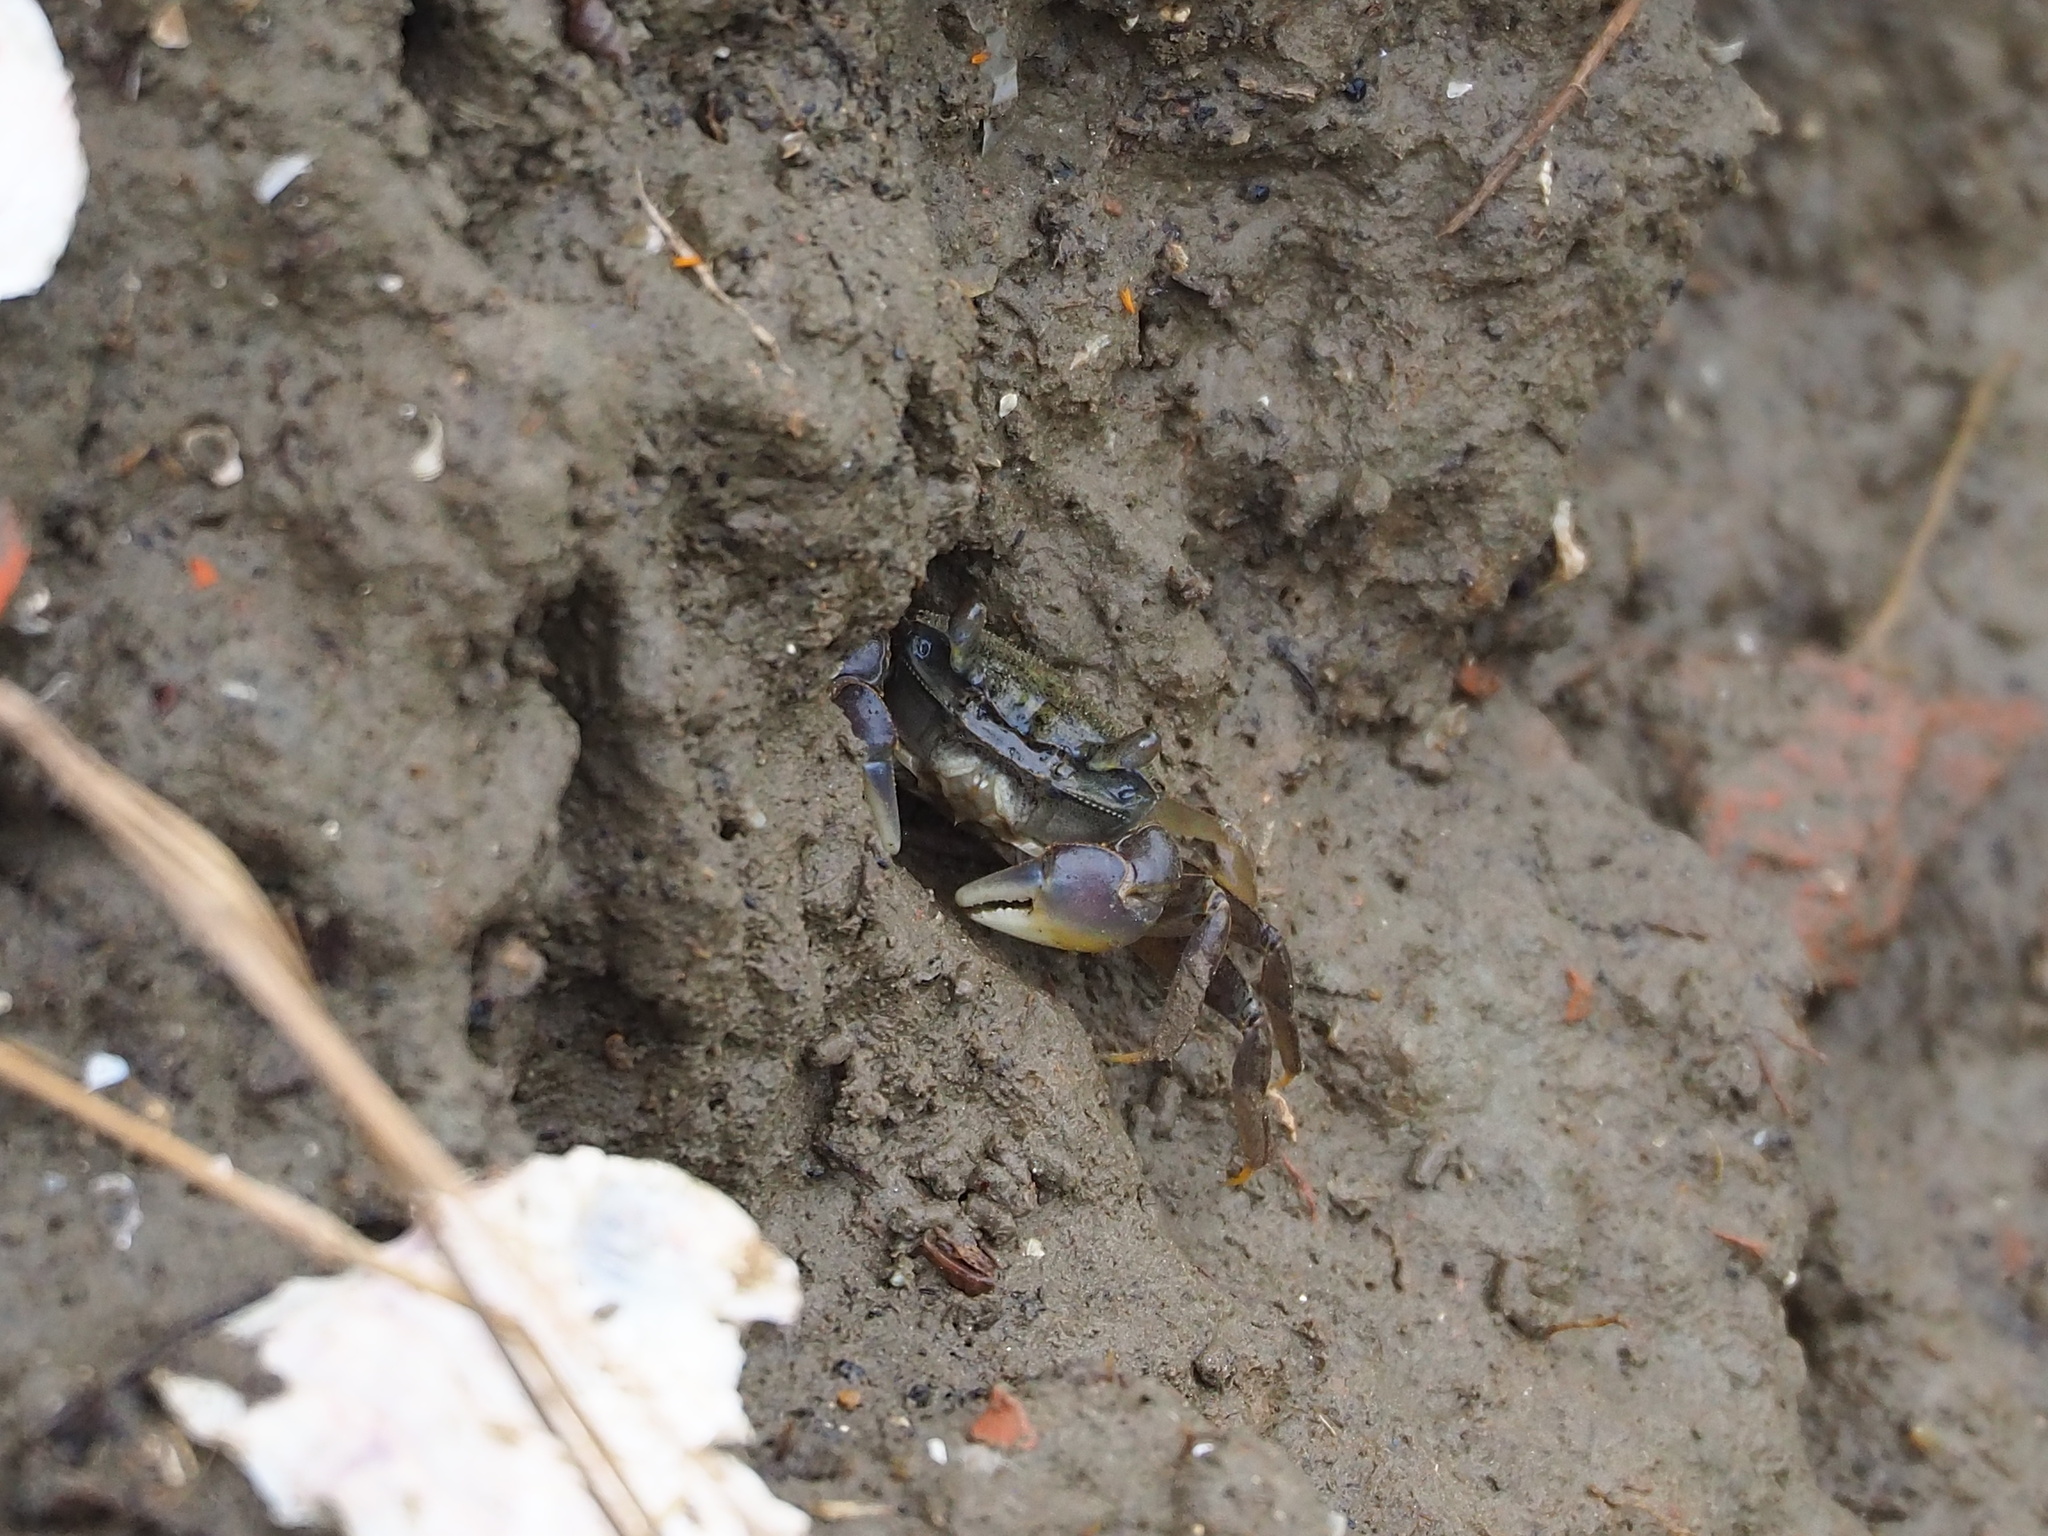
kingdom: Animalia
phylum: Arthropoda
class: Malacostraca
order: Decapoda
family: Varunidae
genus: Helice
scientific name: Helice formosensis
